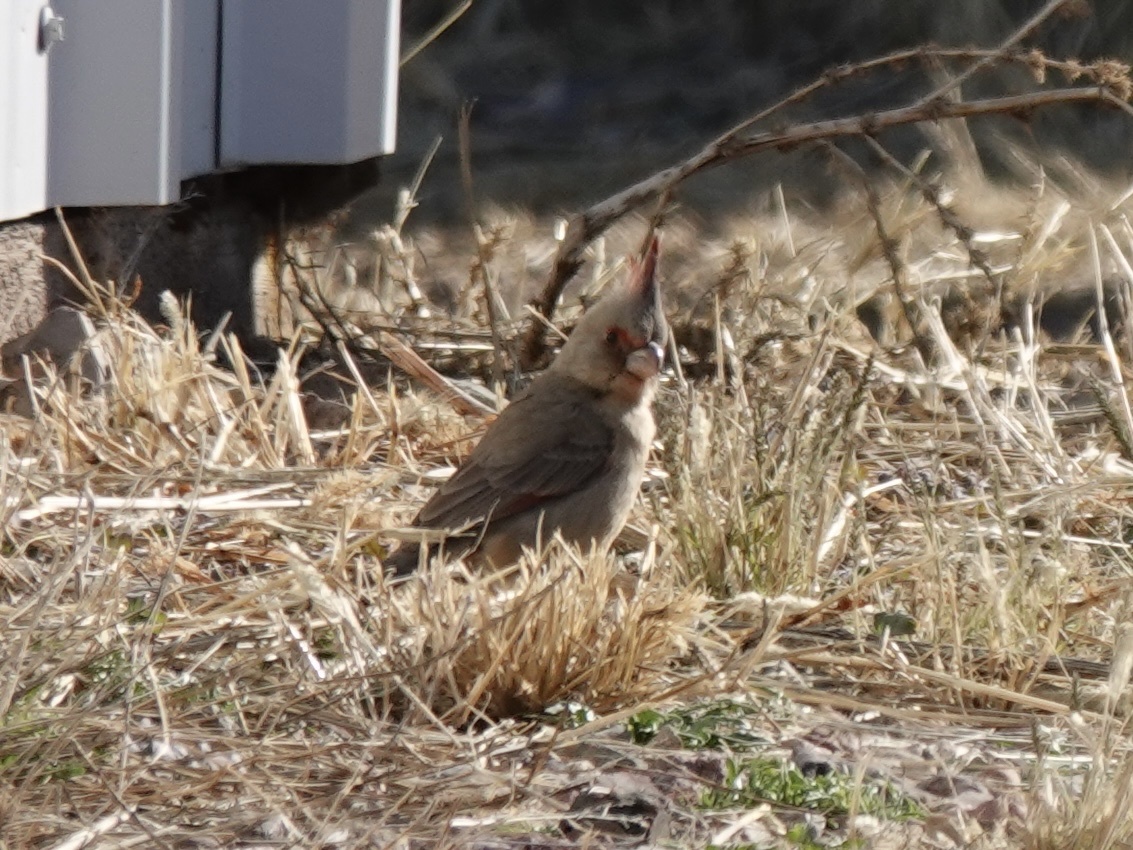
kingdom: Animalia
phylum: Chordata
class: Aves
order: Passeriformes
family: Cardinalidae
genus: Cardinalis
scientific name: Cardinalis sinuatus
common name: Pyrrhuloxia
